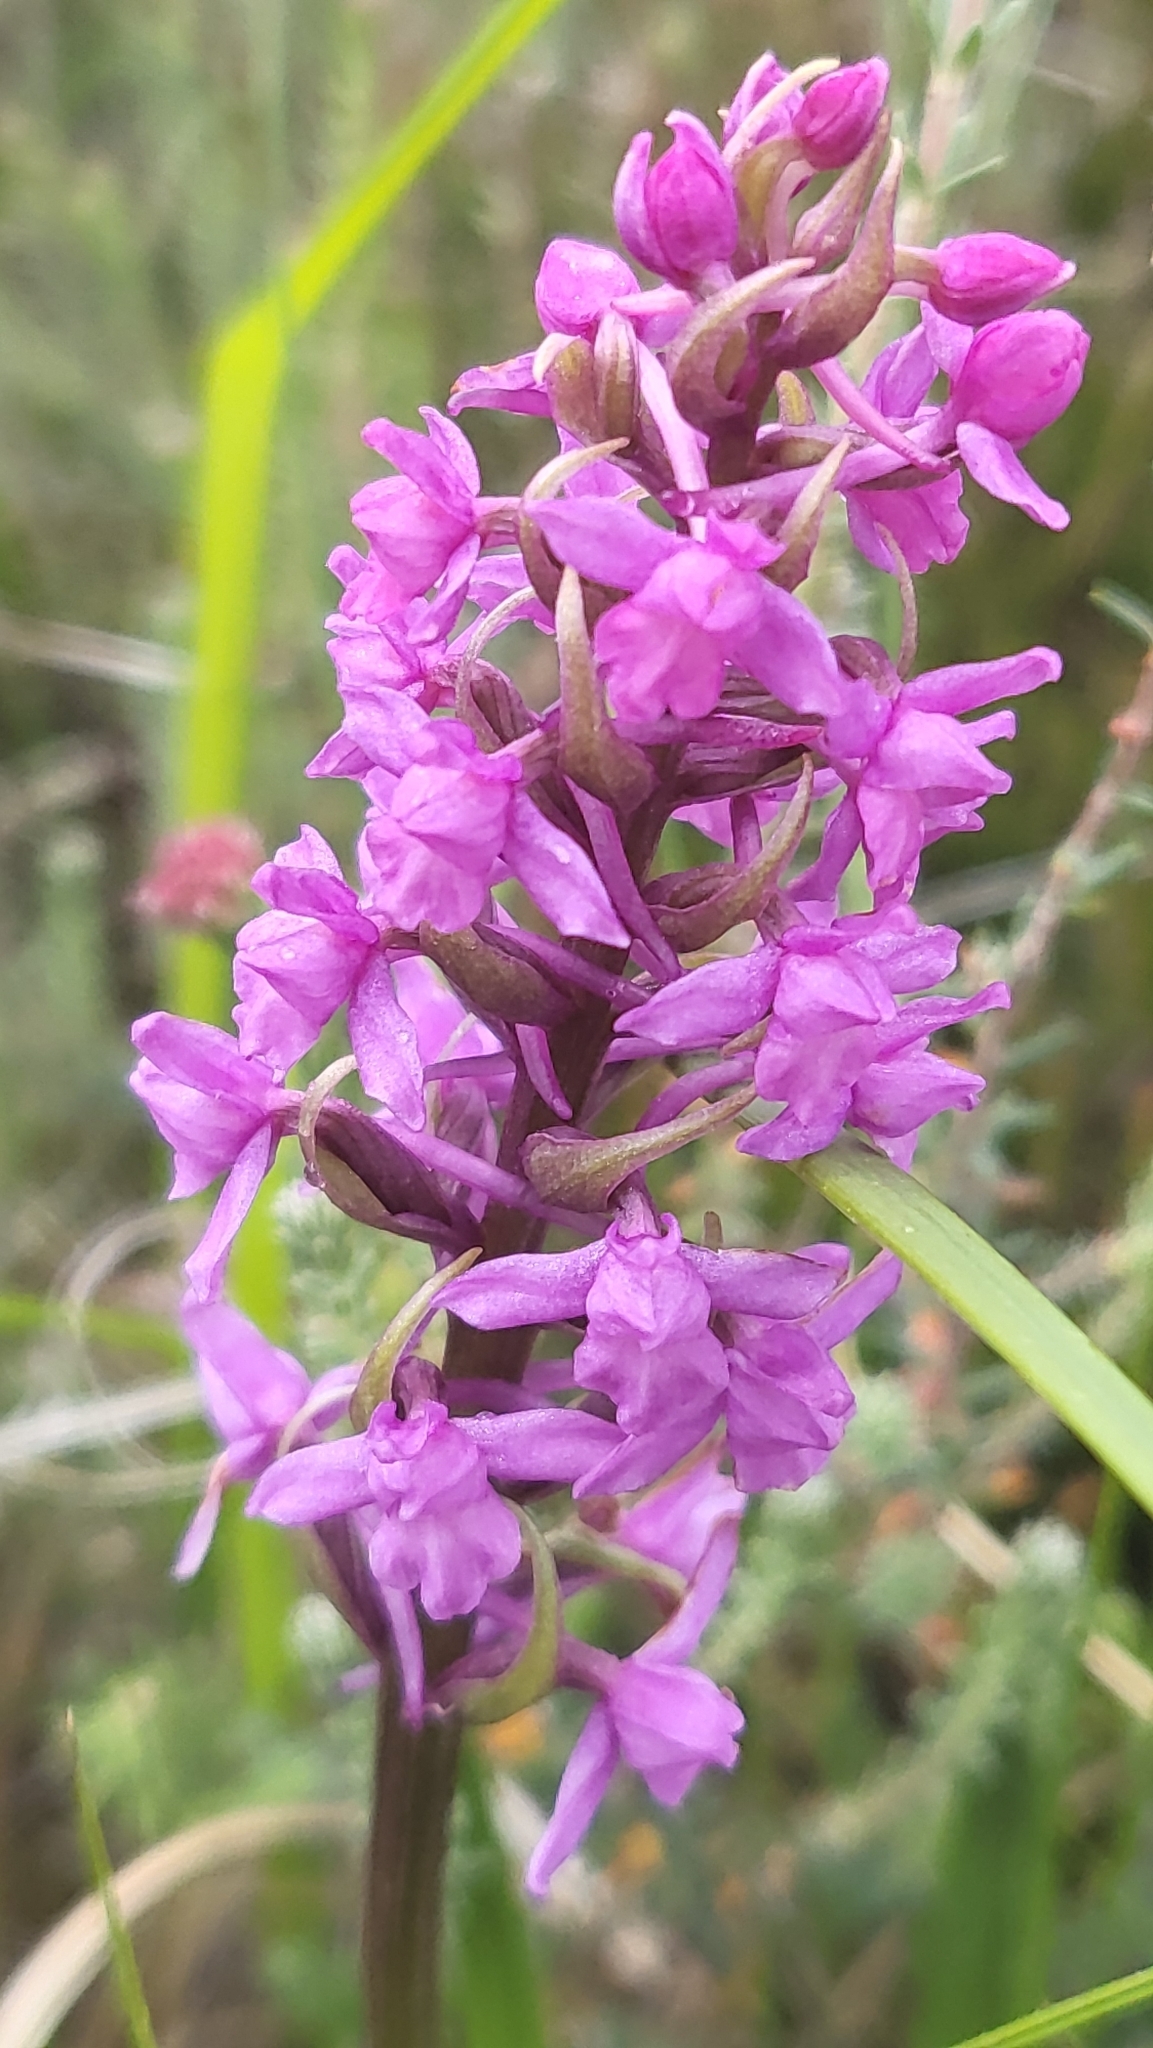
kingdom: Plantae
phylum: Tracheophyta
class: Liliopsida
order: Asparagales
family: Orchidaceae
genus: Gymnadenia
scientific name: Gymnadenia borealis
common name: Heath fragrant orchid
